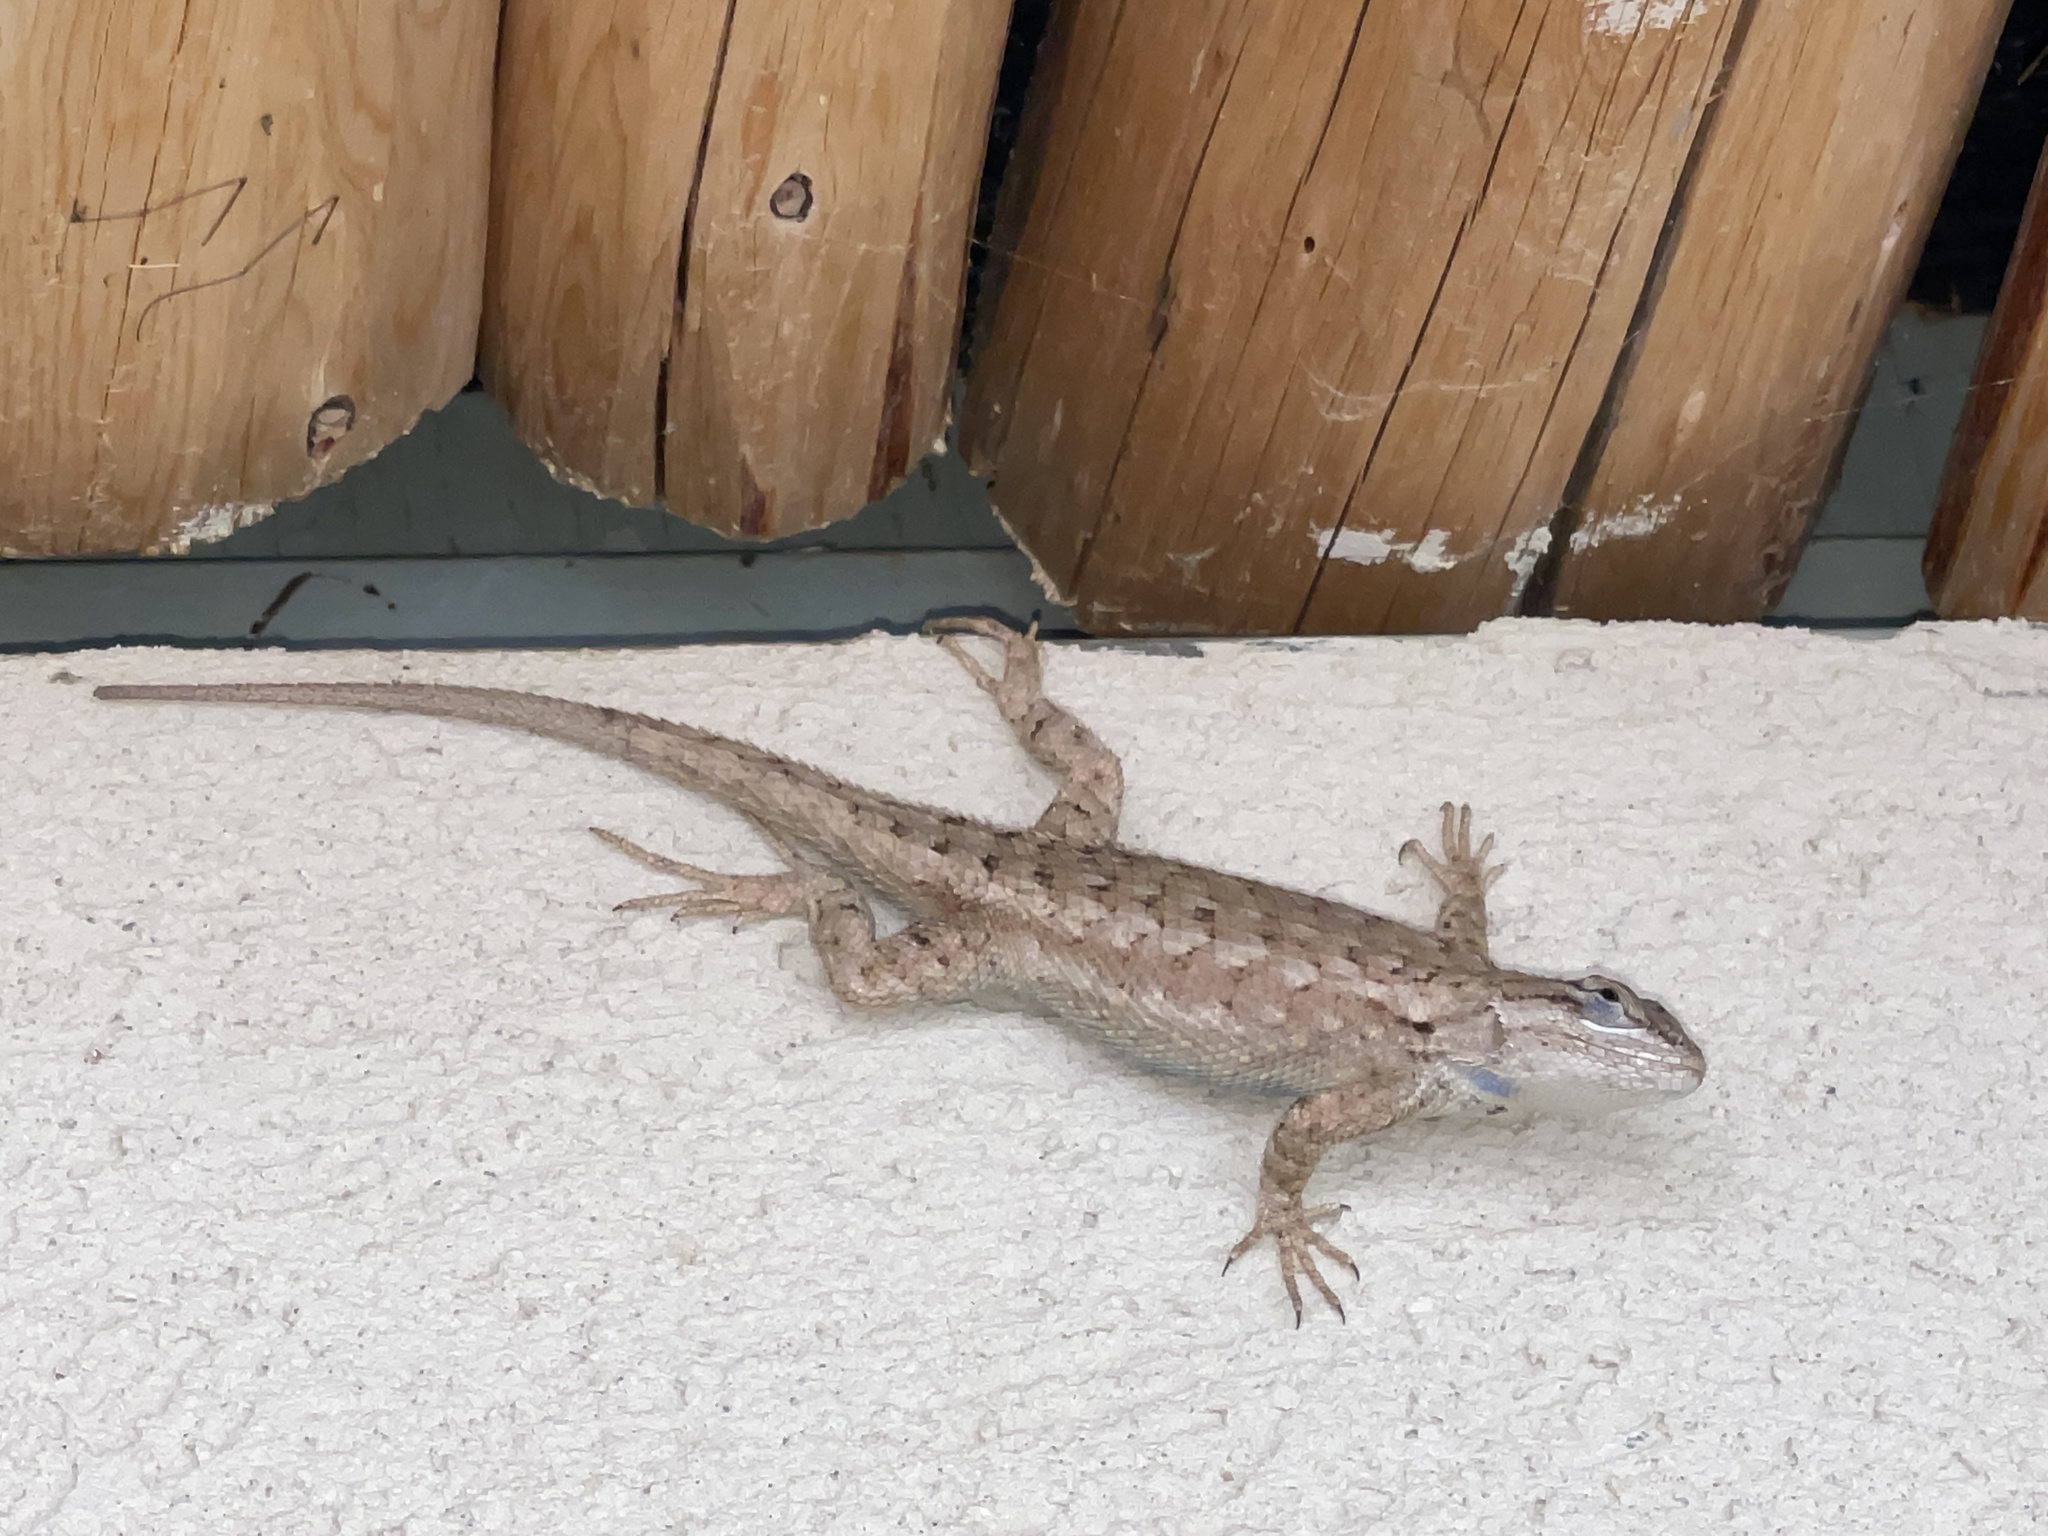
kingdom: Animalia
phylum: Chordata
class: Squamata
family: Phrynosomatidae
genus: Sceloporus
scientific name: Sceloporus tristichus
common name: Plateau fence lizard
